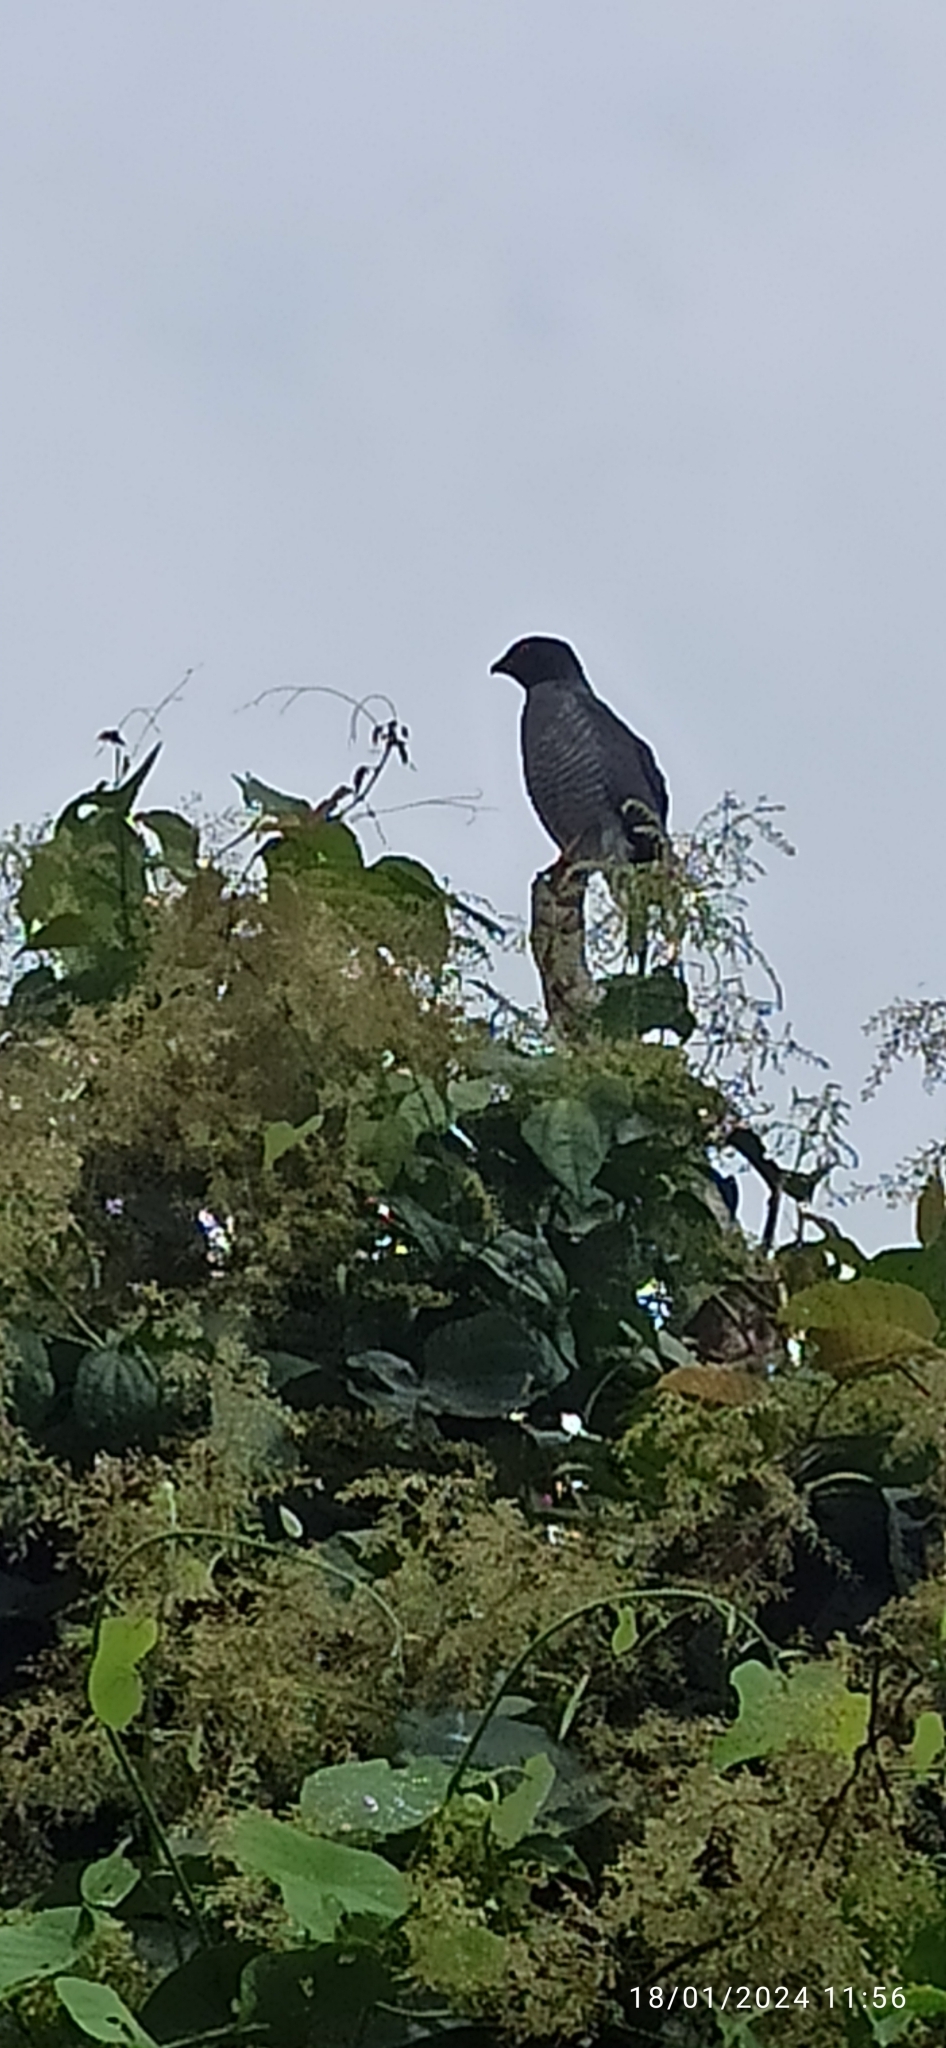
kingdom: Animalia
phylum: Chordata
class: Aves
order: Accipitriformes
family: Accipitridae
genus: Rupornis
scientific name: Rupornis magnirostris
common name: Roadside hawk
